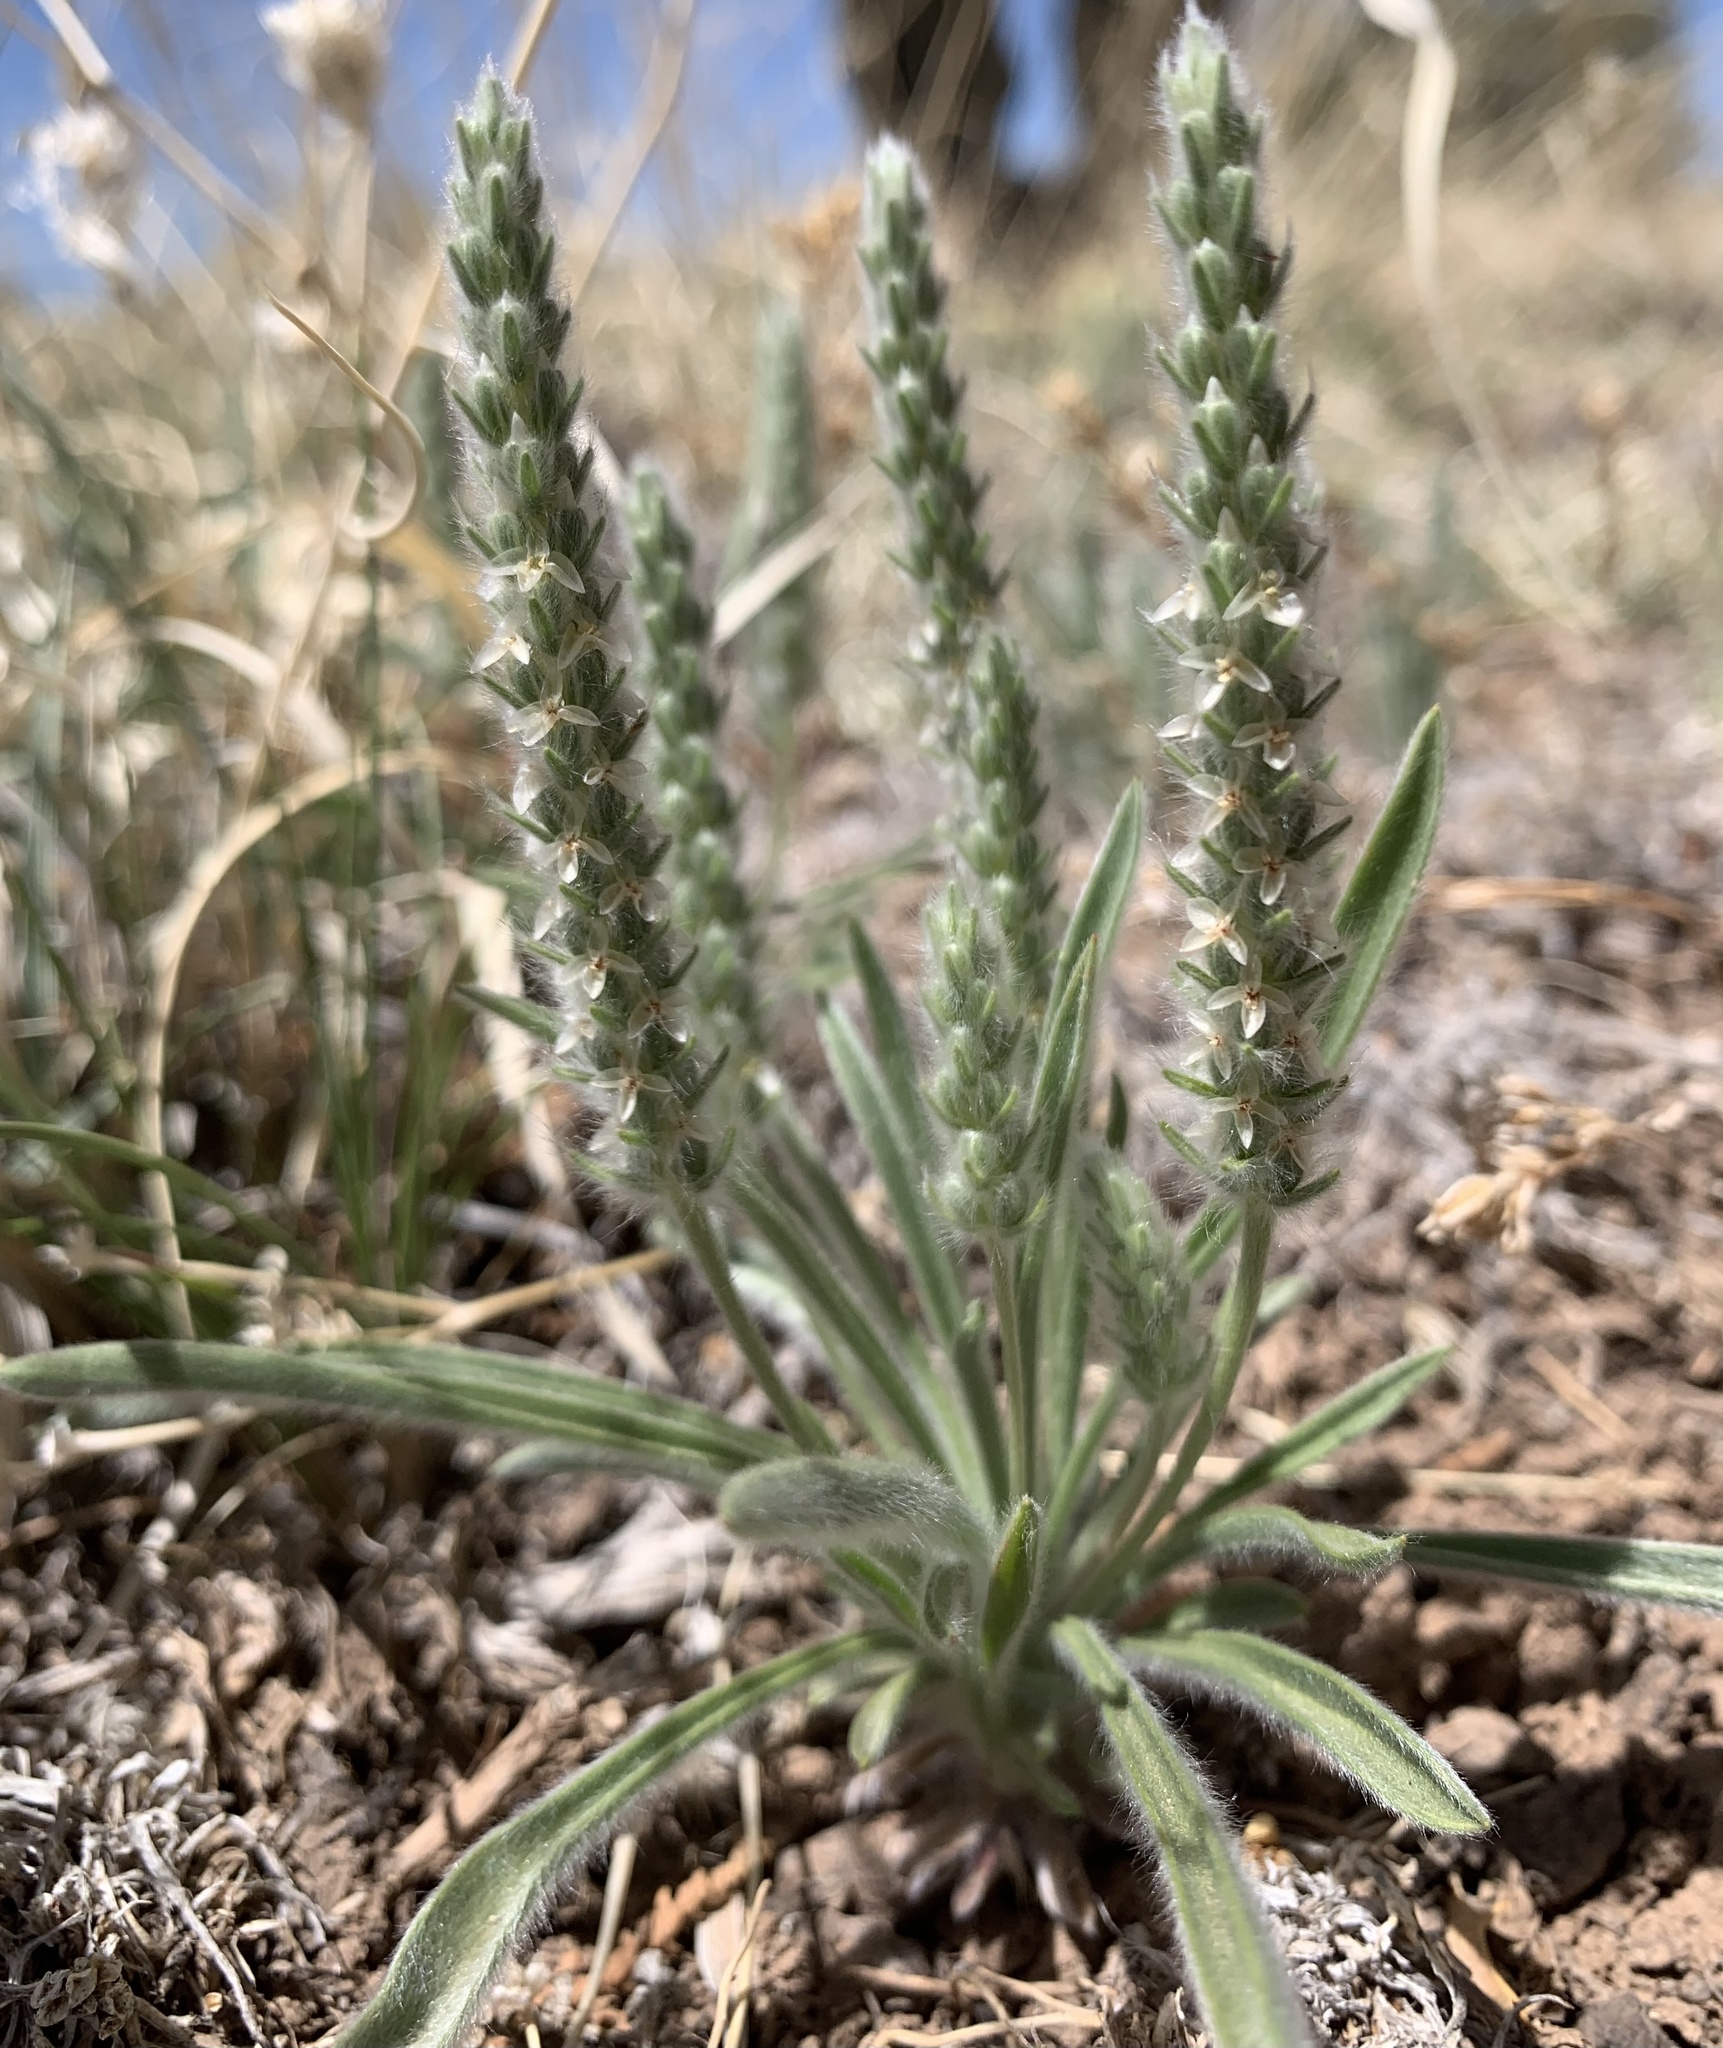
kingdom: Plantae
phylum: Tracheophyta
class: Magnoliopsida
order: Lamiales
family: Plantaginaceae
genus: Plantago
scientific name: Plantago patagonica
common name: Patagonia indian-wheat
